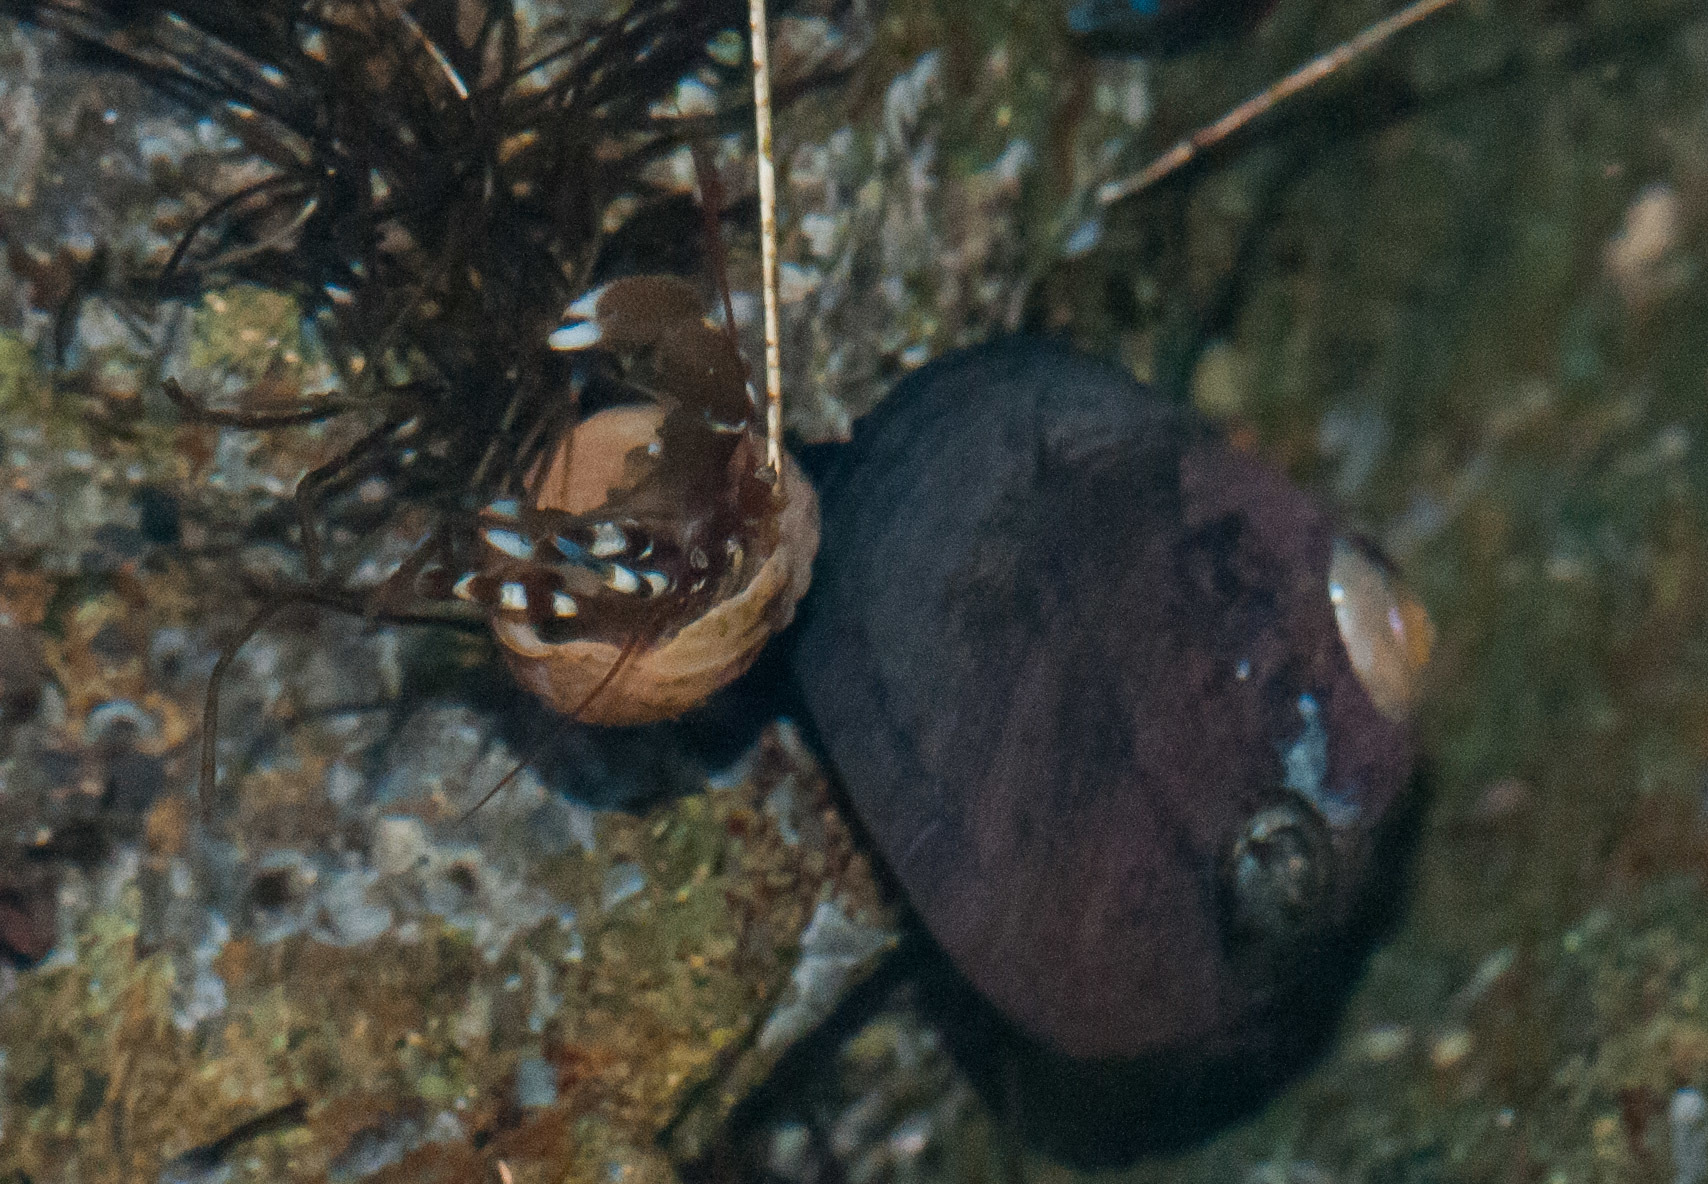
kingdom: Animalia
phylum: Arthropoda
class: Malacostraca
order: Decapoda
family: Paguridae
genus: Pagurus
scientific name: Pagurus samuelis
